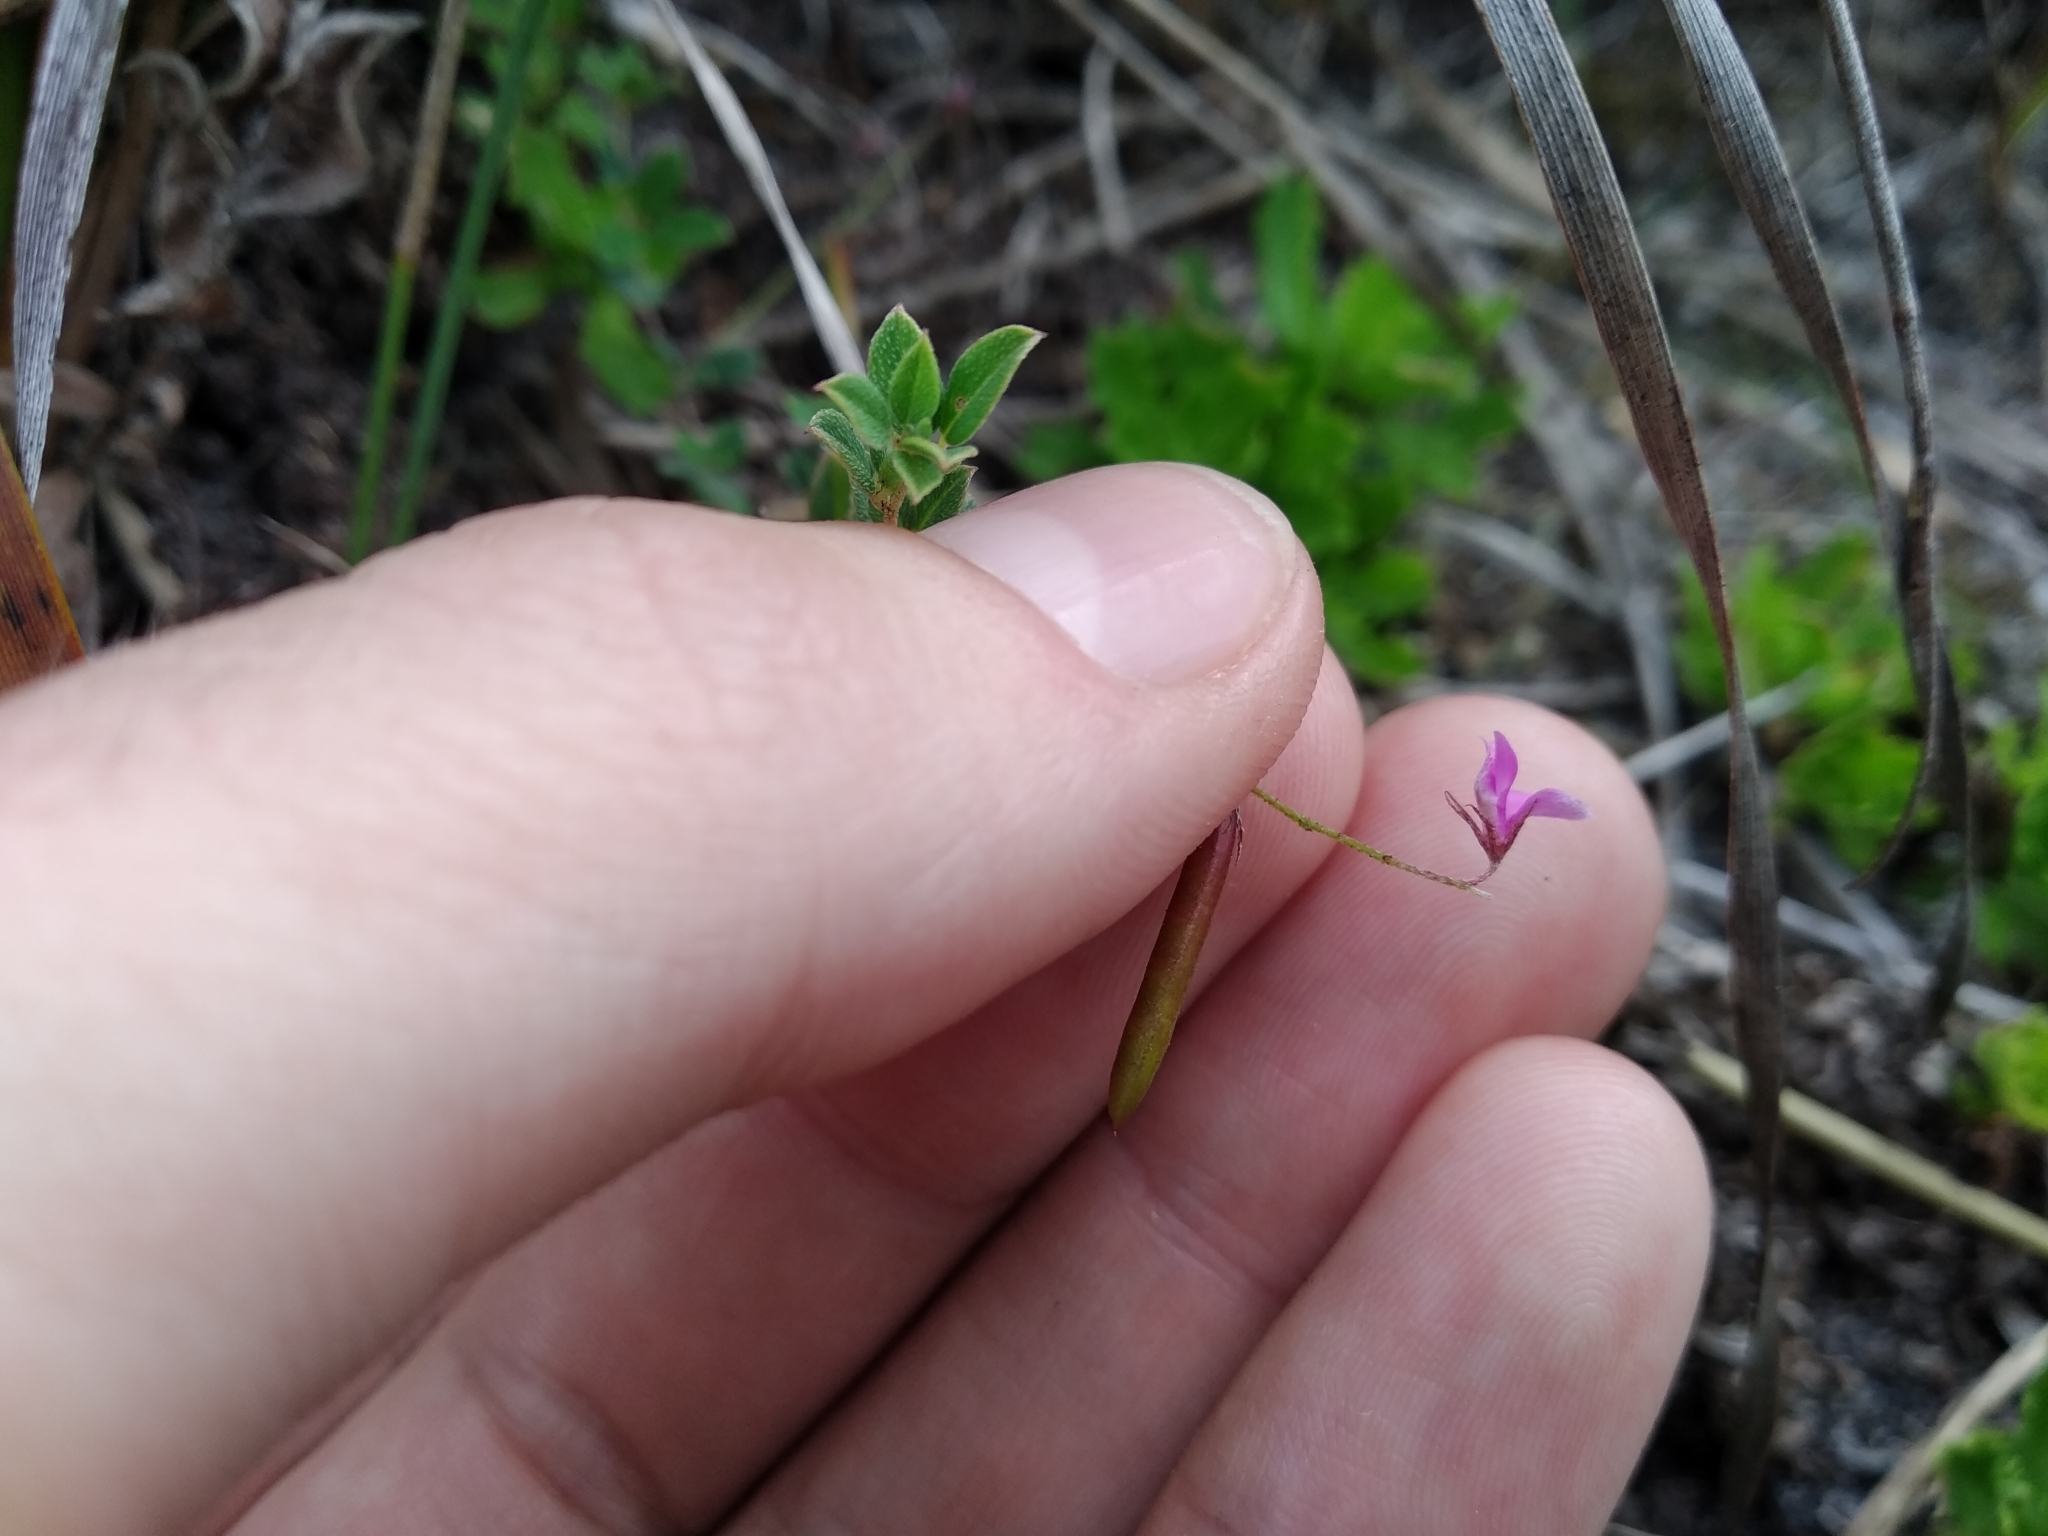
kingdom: Plantae
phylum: Tracheophyta
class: Magnoliopsida
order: Fabales
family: Fabaceae
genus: Indigofera
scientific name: Indigofera sarmentosa
